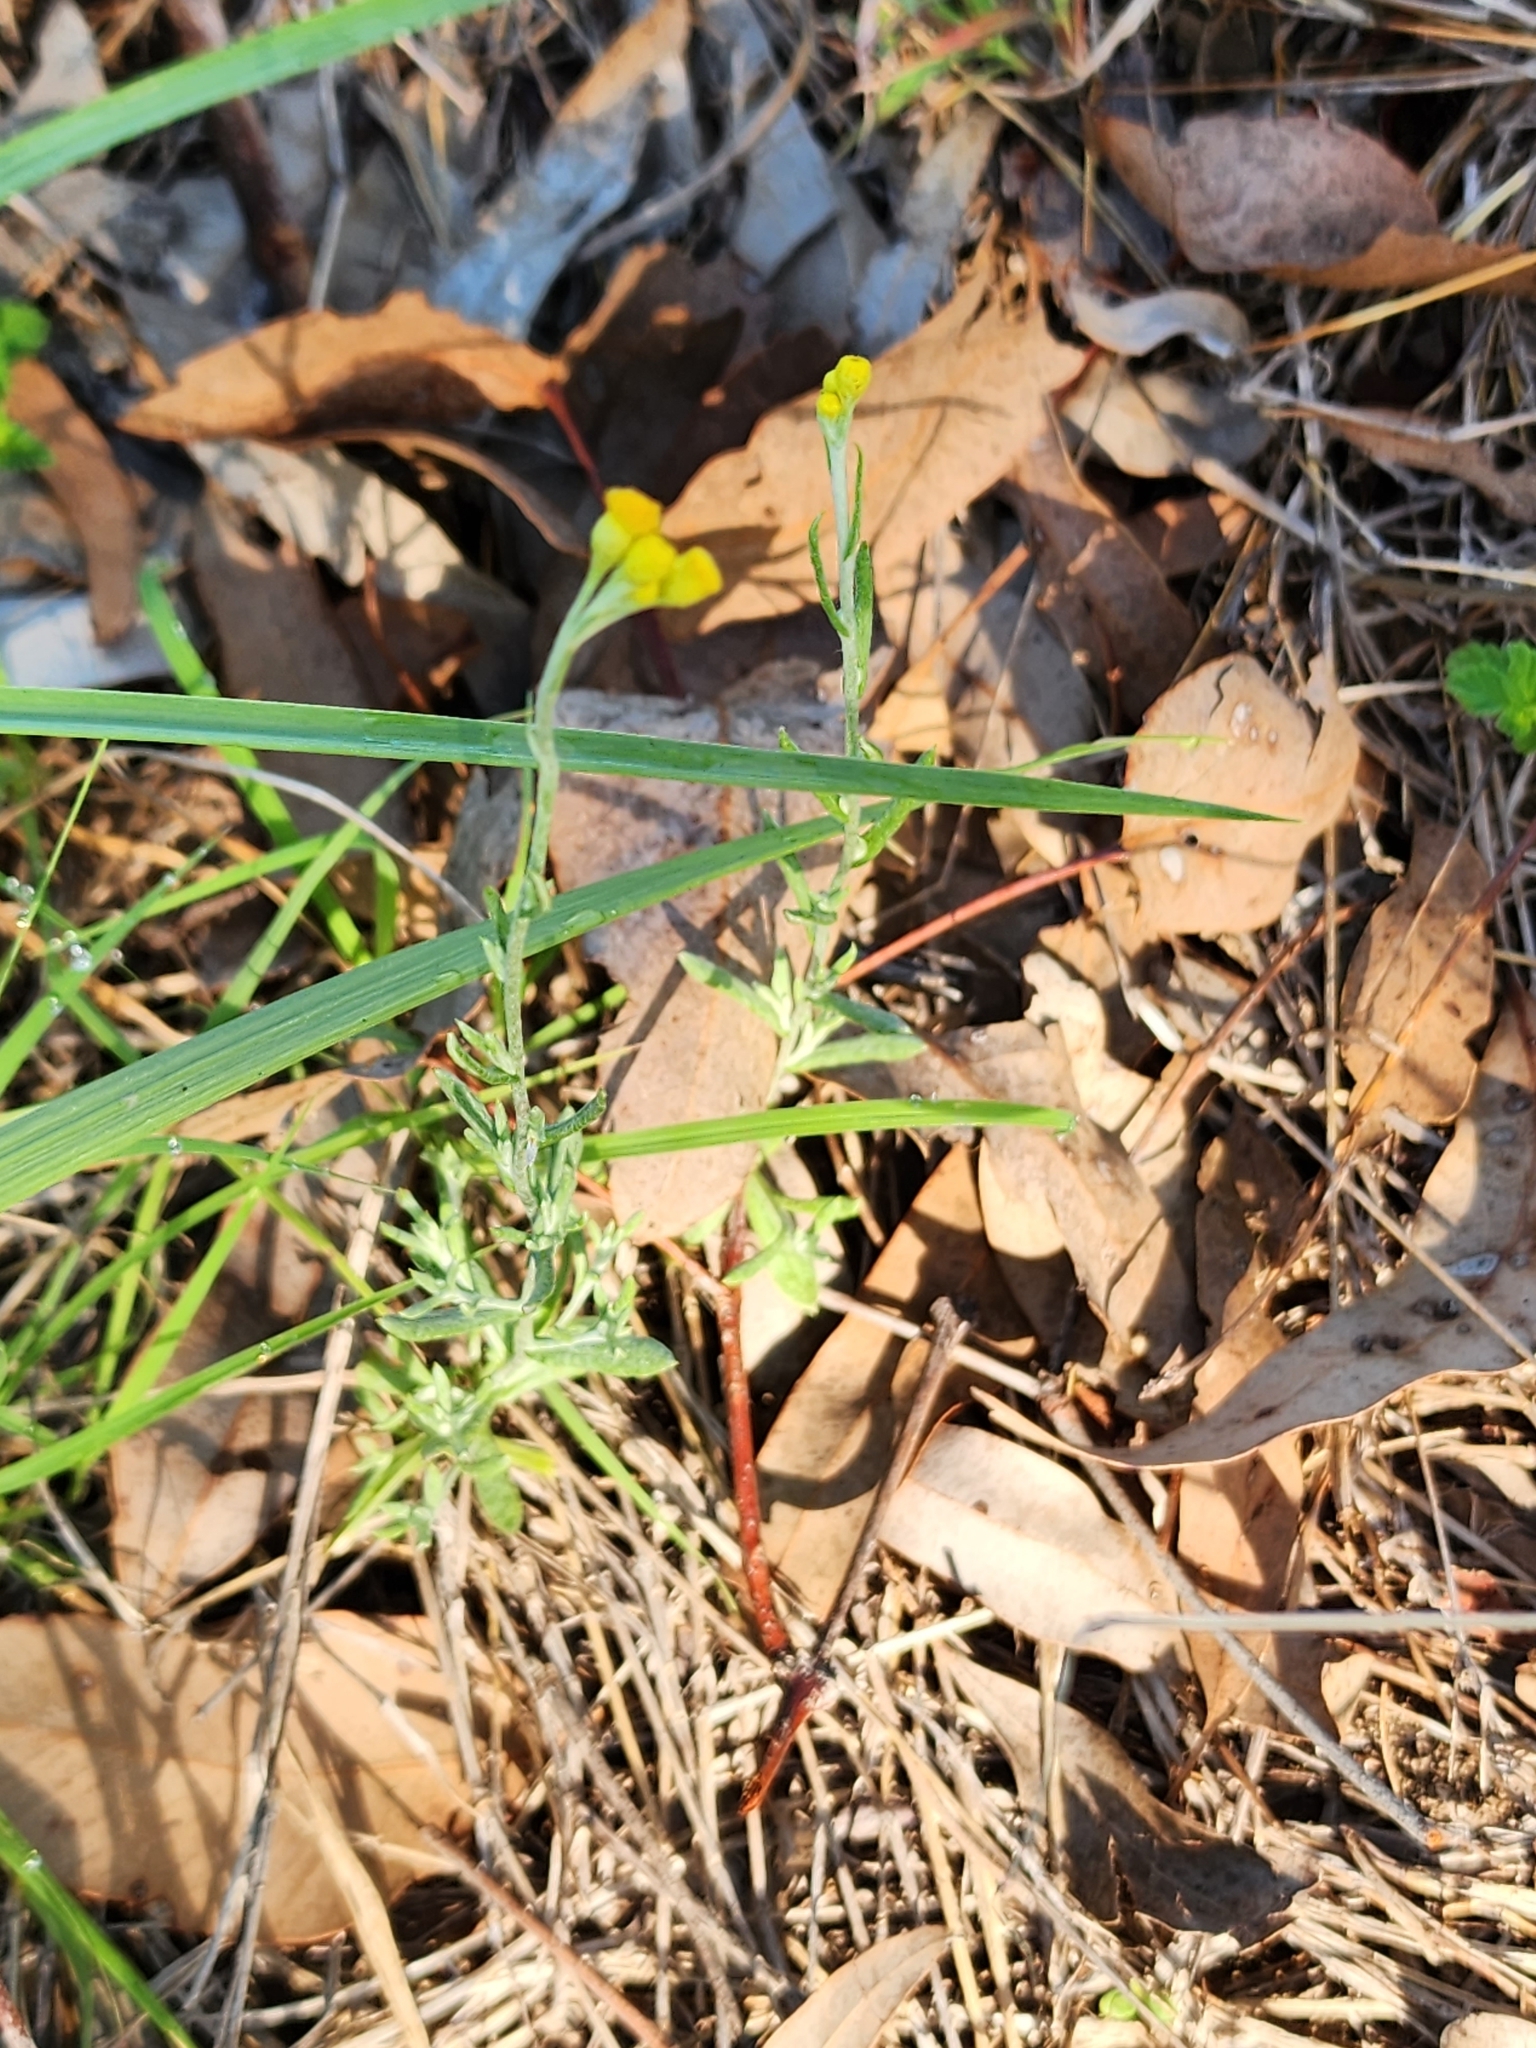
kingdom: Plantae
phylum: Tracheophyta
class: Magnoliopsida
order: Asterales
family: Asteraceae
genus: Chrysocephalum
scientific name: Chrysocephalum apiculatum
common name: Common everlasting
